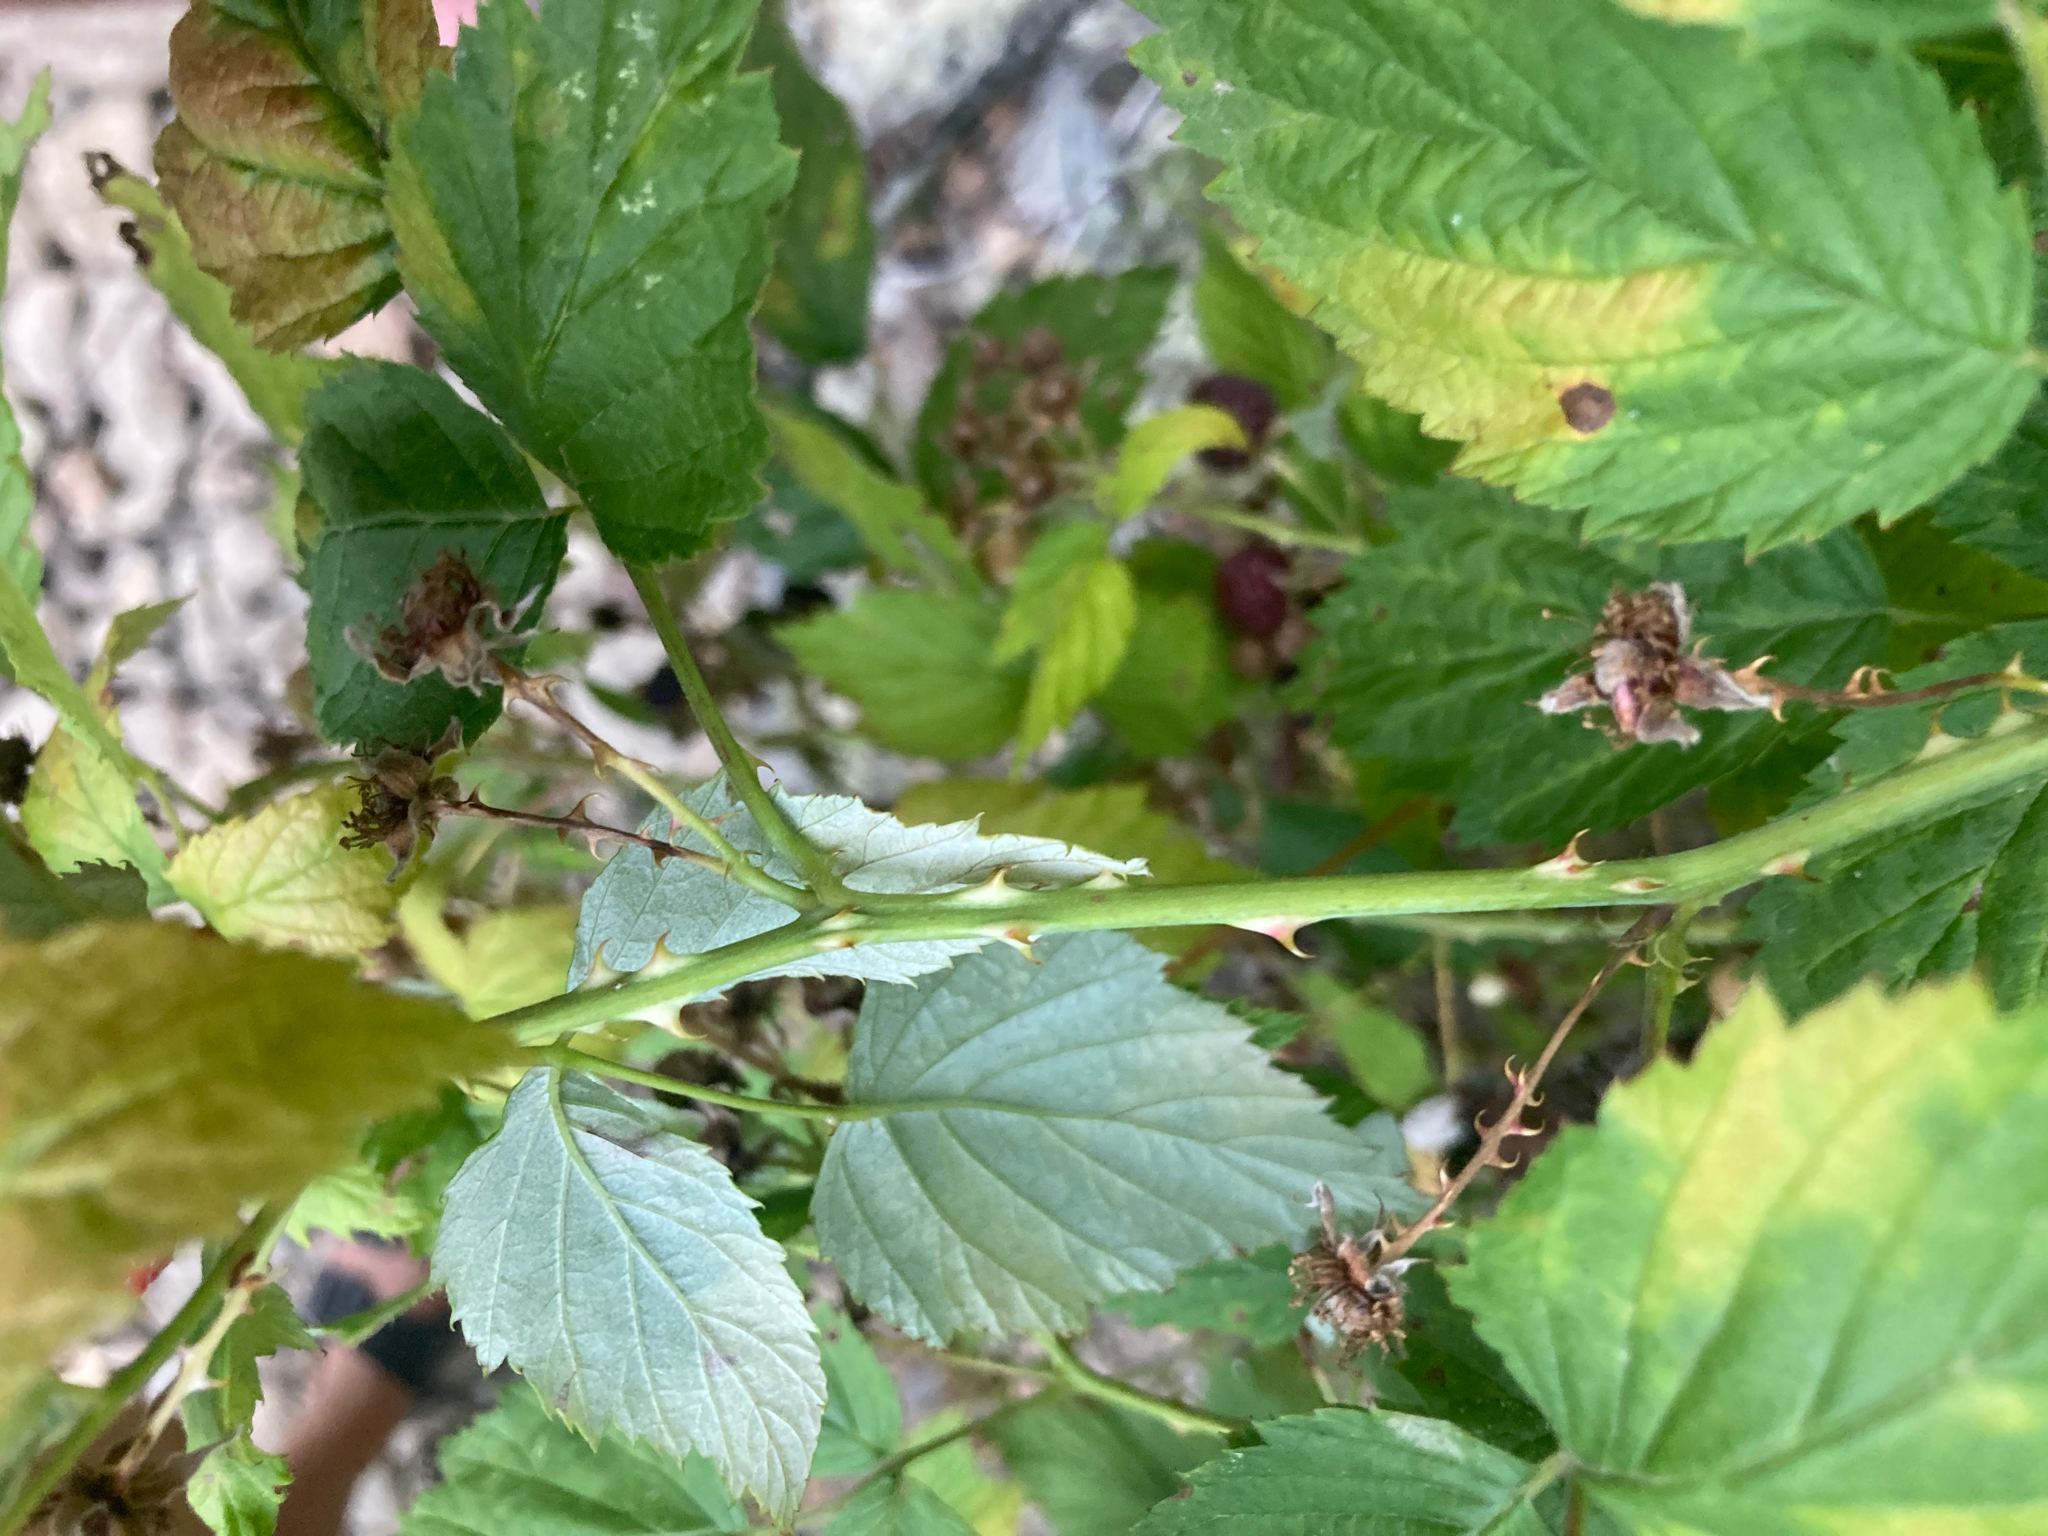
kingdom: Plantae
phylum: Tracheophyta
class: Magnoliopsida
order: Rosales
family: Rosaceae
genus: Rubus
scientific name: Rubus leucodermis
